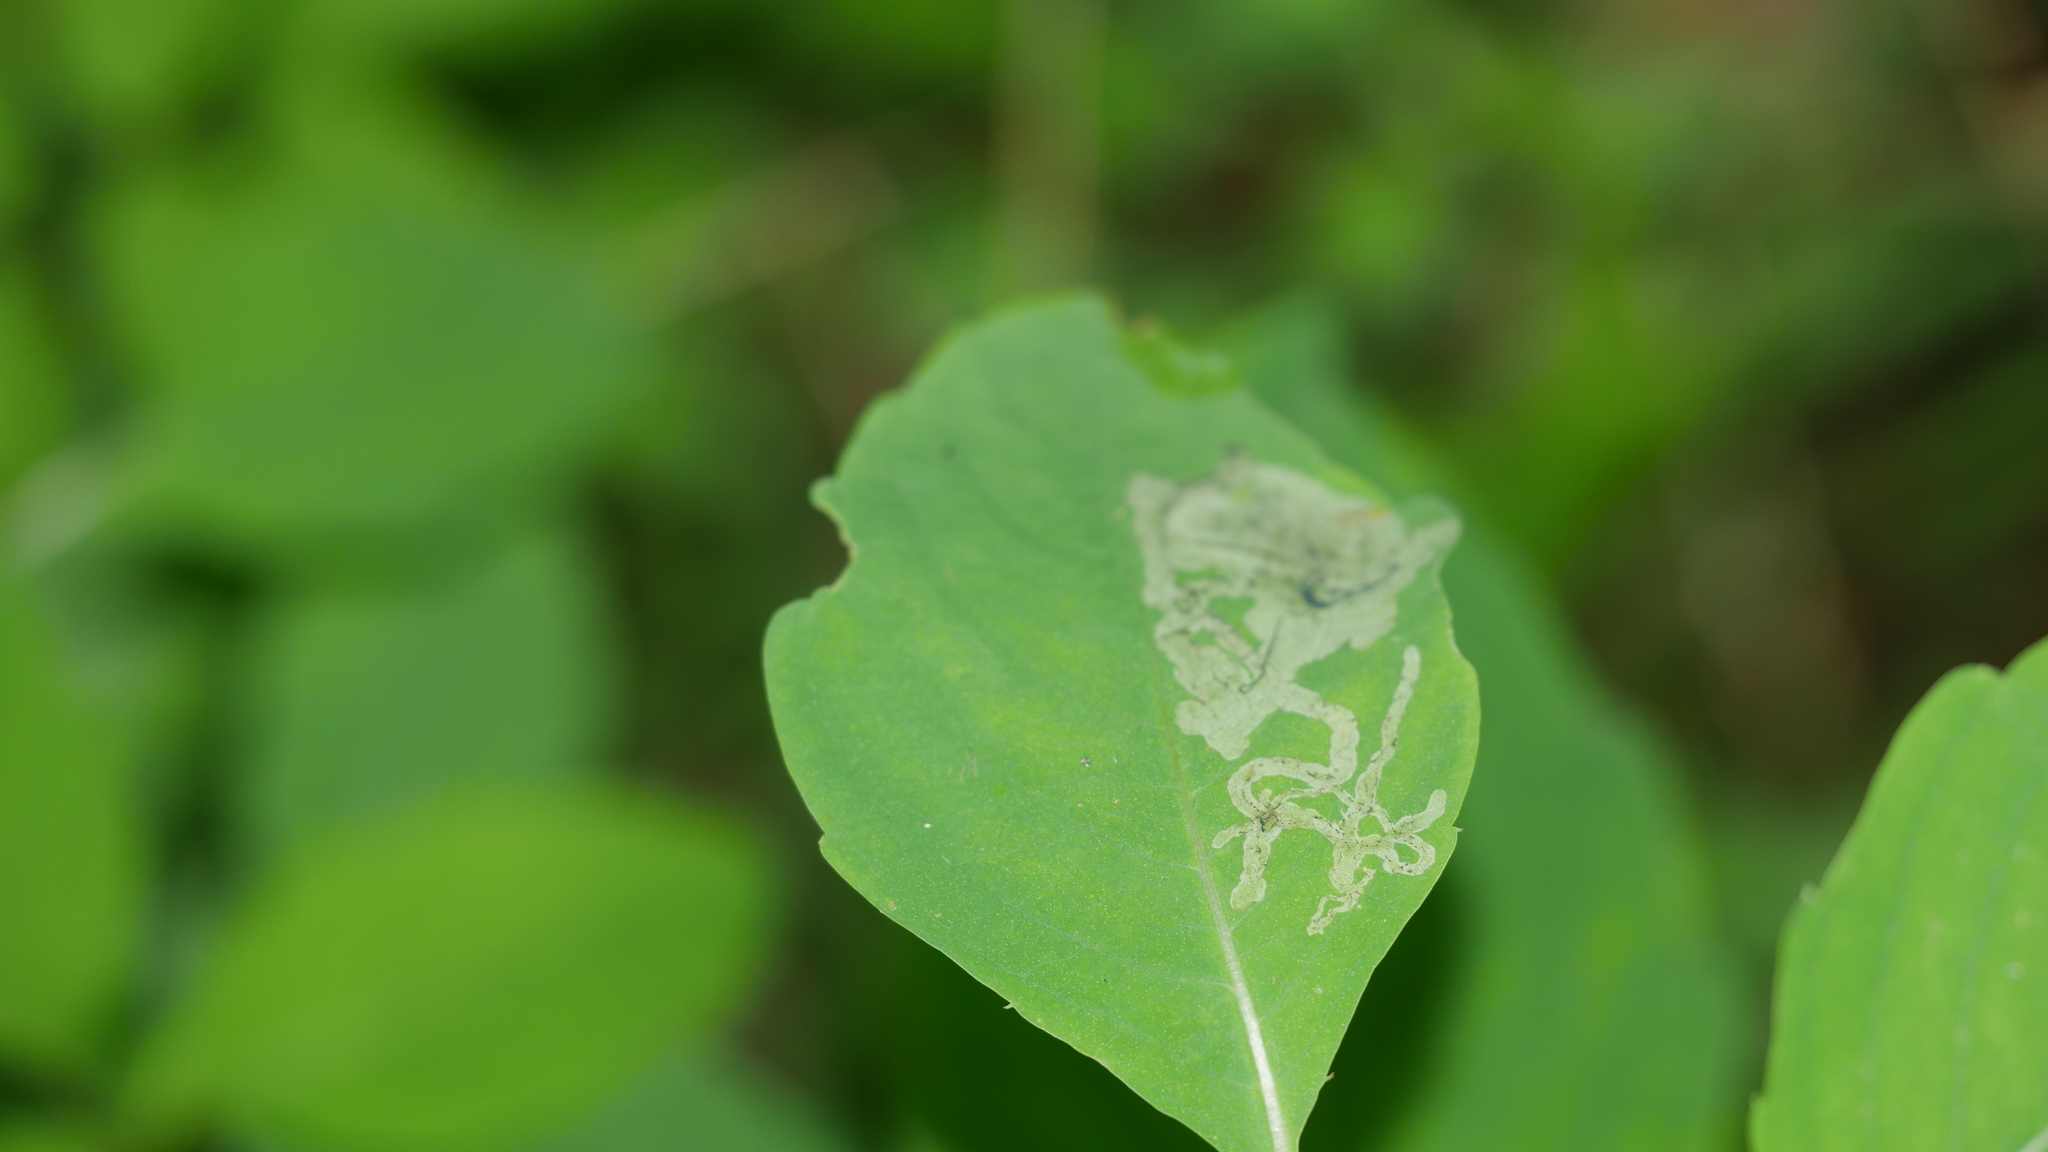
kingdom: Animalia
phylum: Arthropoda
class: Insecta
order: Diptera
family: Agromyzidae
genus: Phytoliriomyza
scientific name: Phytoliriomyza melampyga
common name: Jewelweed leaf-miner fly
